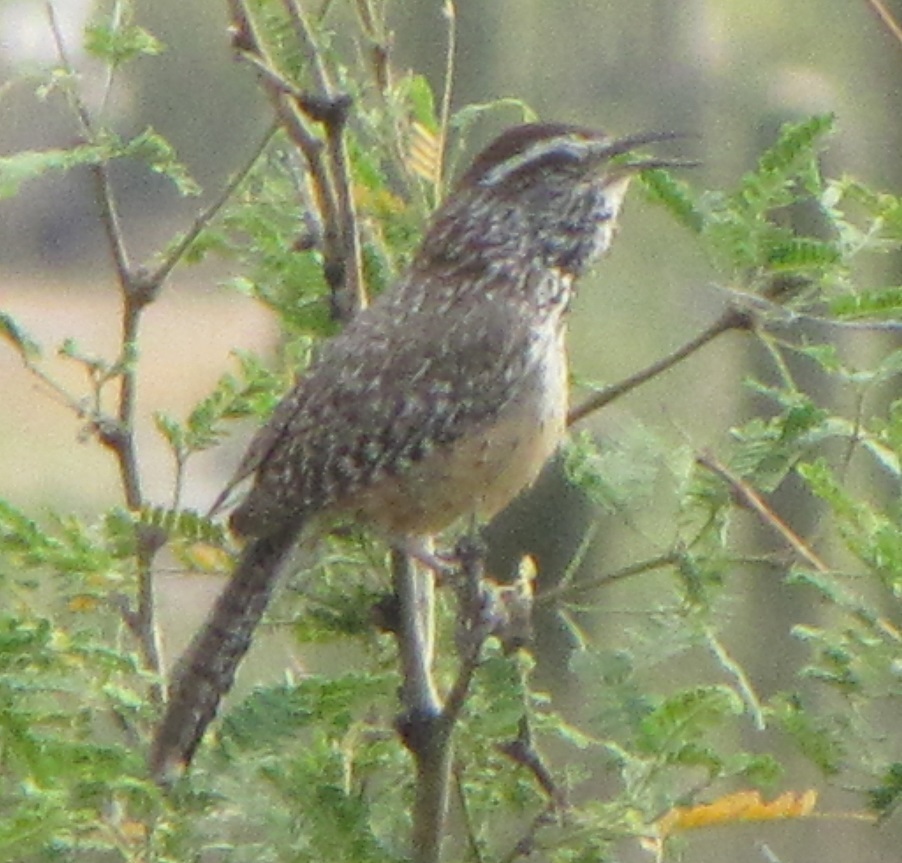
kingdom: Animalia
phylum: Chordata
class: Aves
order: Passeriformes
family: Troglodytidae
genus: Campylorhynchus
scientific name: Campylorhynchus brunneicapillus
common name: Cactus wren
